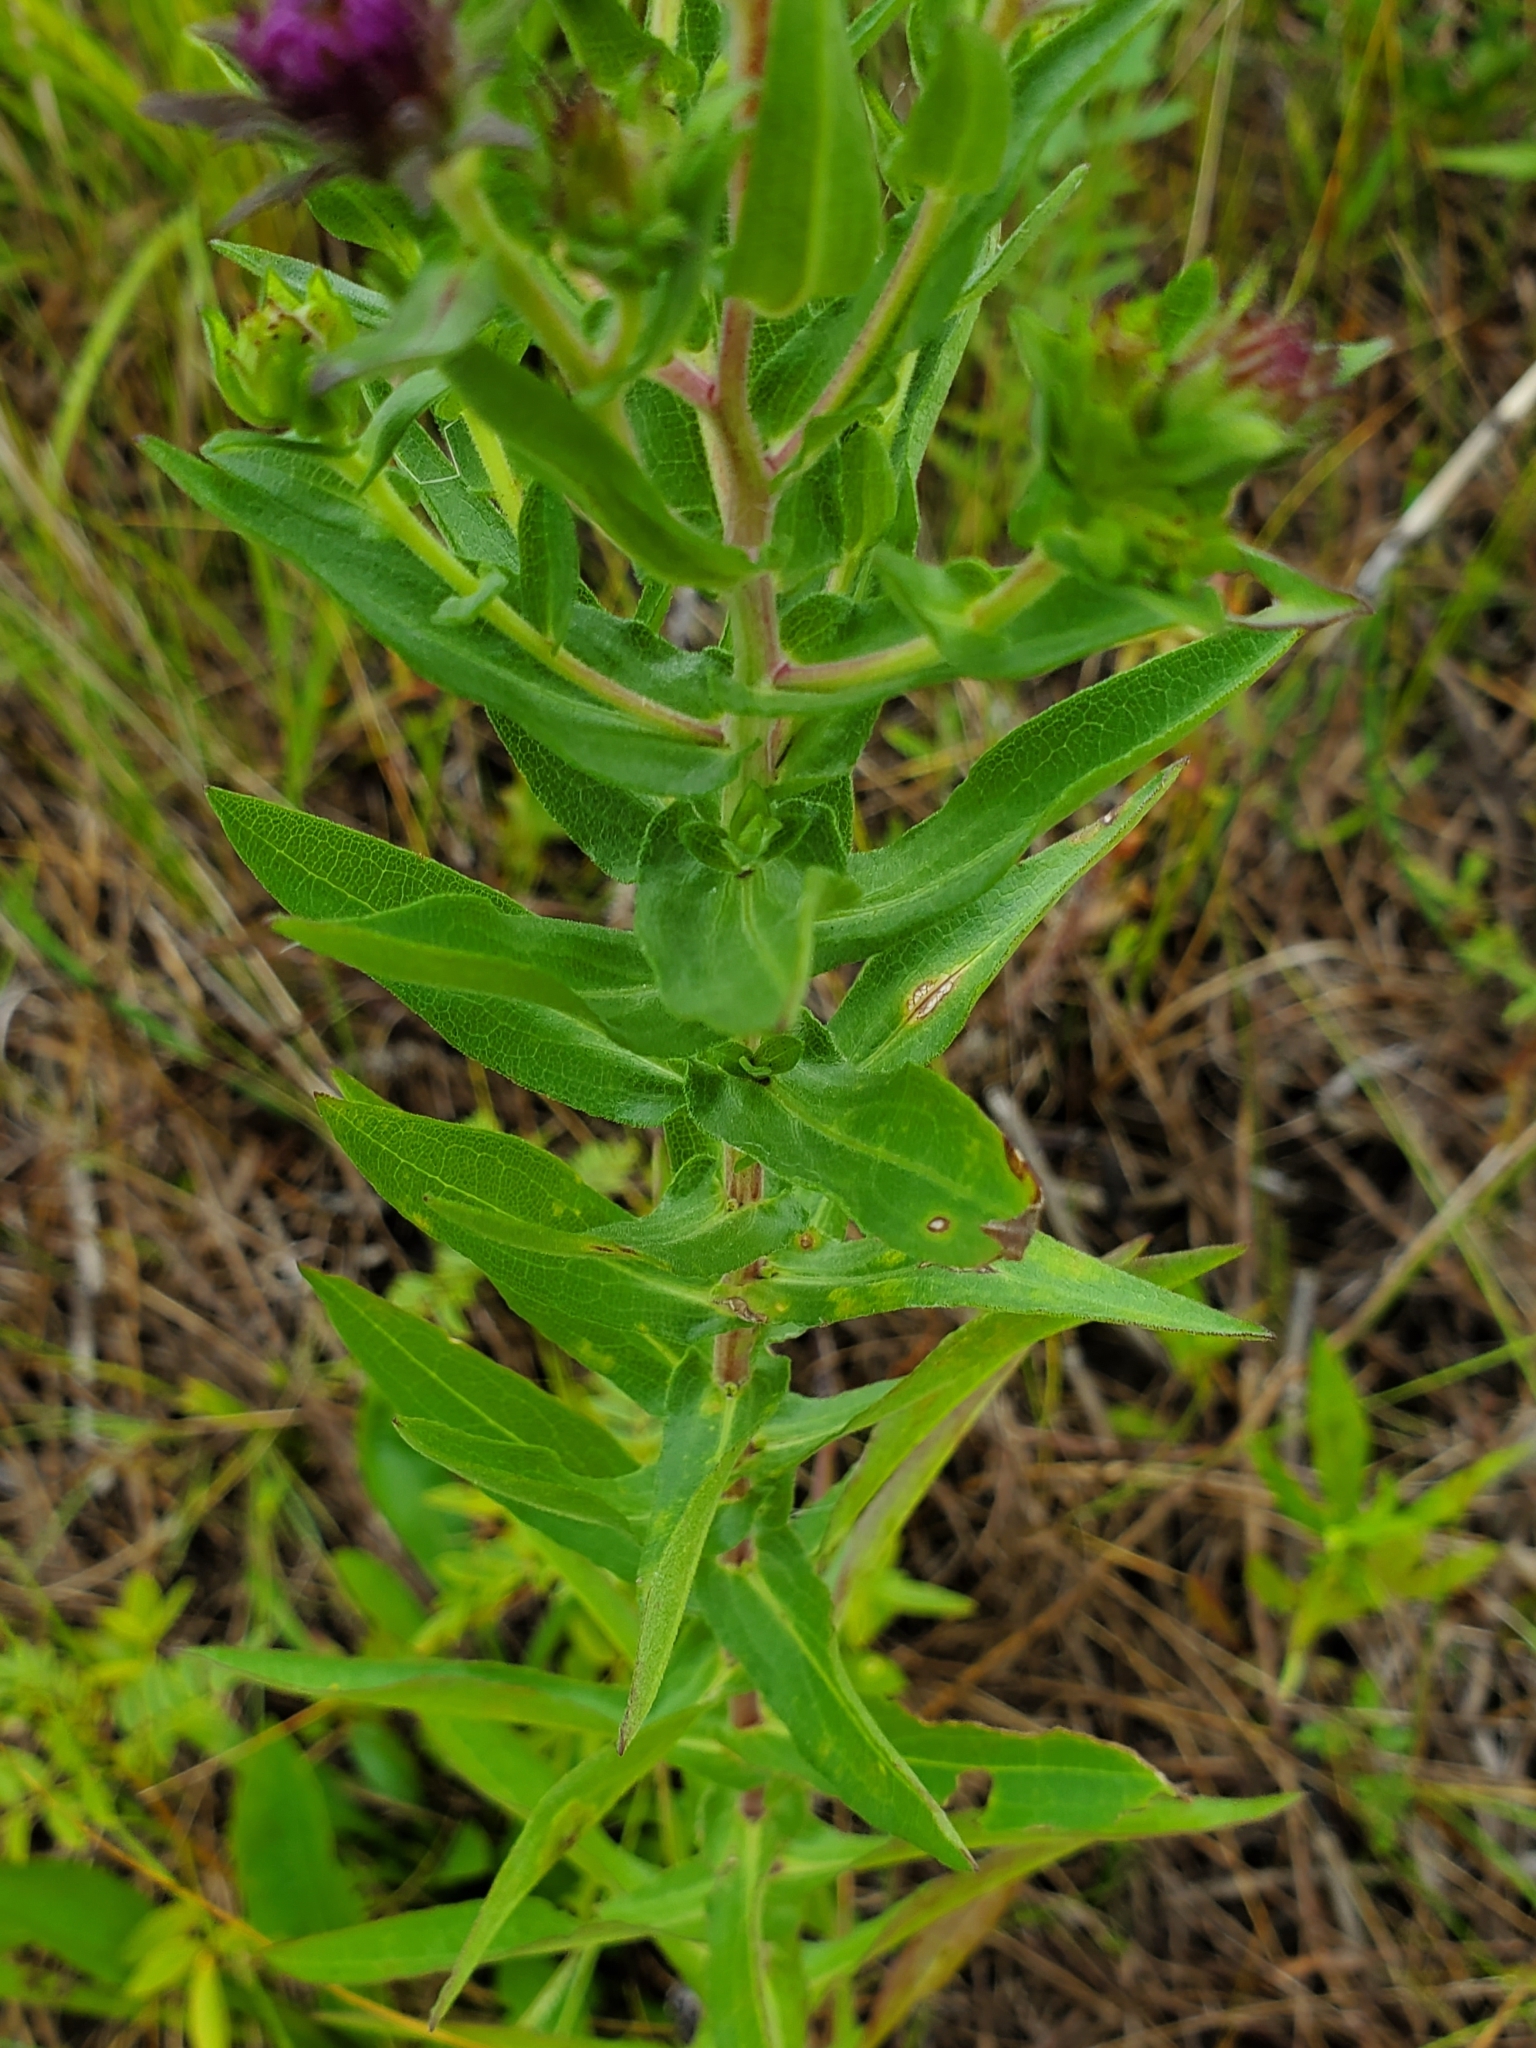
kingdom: Plantae
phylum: Tracheophyta
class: Magnoliopsida
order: Asterales
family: Asteraceae
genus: Symphyotrichum
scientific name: Symphyotrichum novae-angliae
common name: Michaelmas daisy
